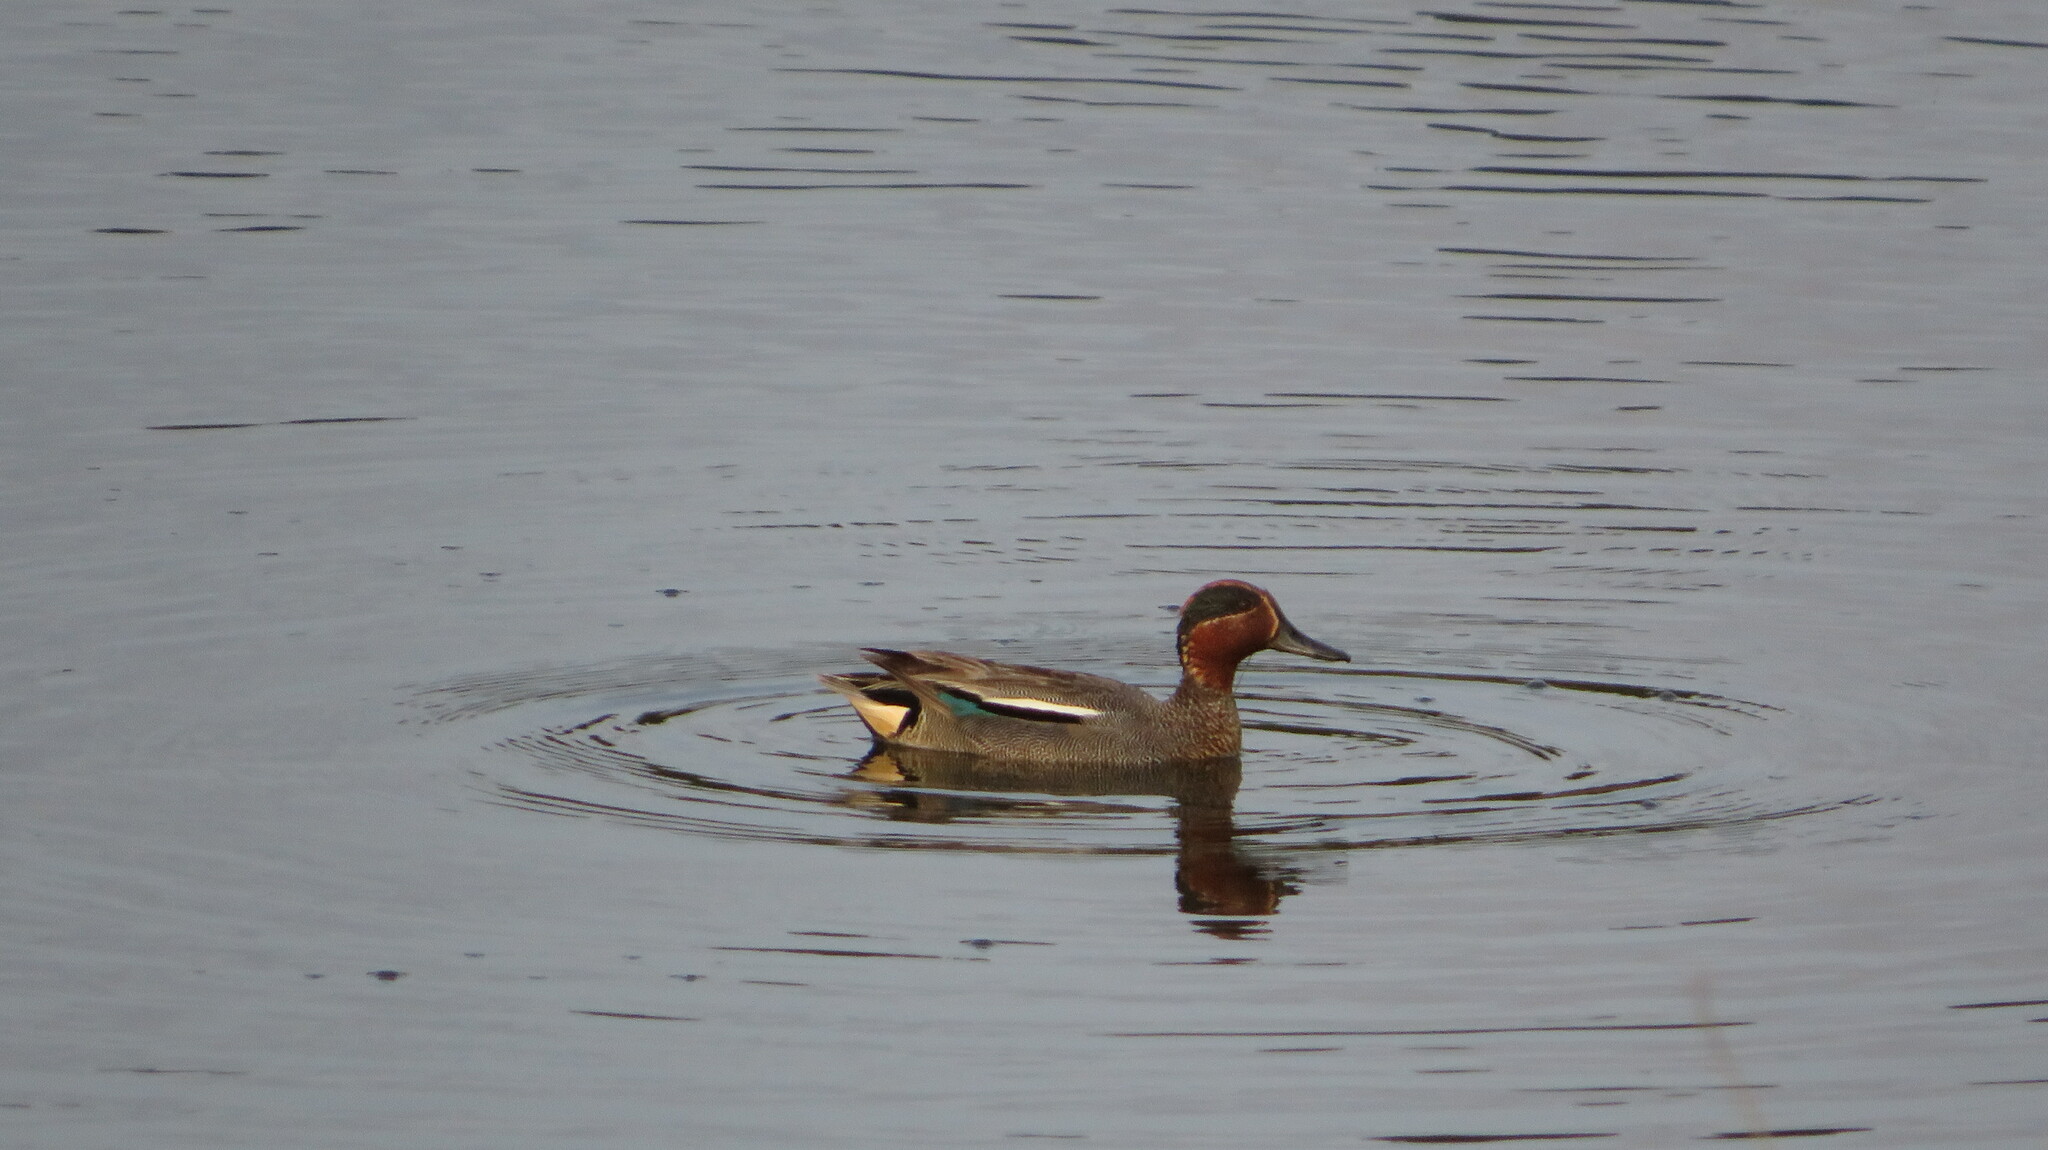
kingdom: Animalia
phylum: Chordata
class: Aves
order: Anseriformes
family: Anatidae
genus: Anas
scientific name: Anas crecca
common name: Eurasian teal
